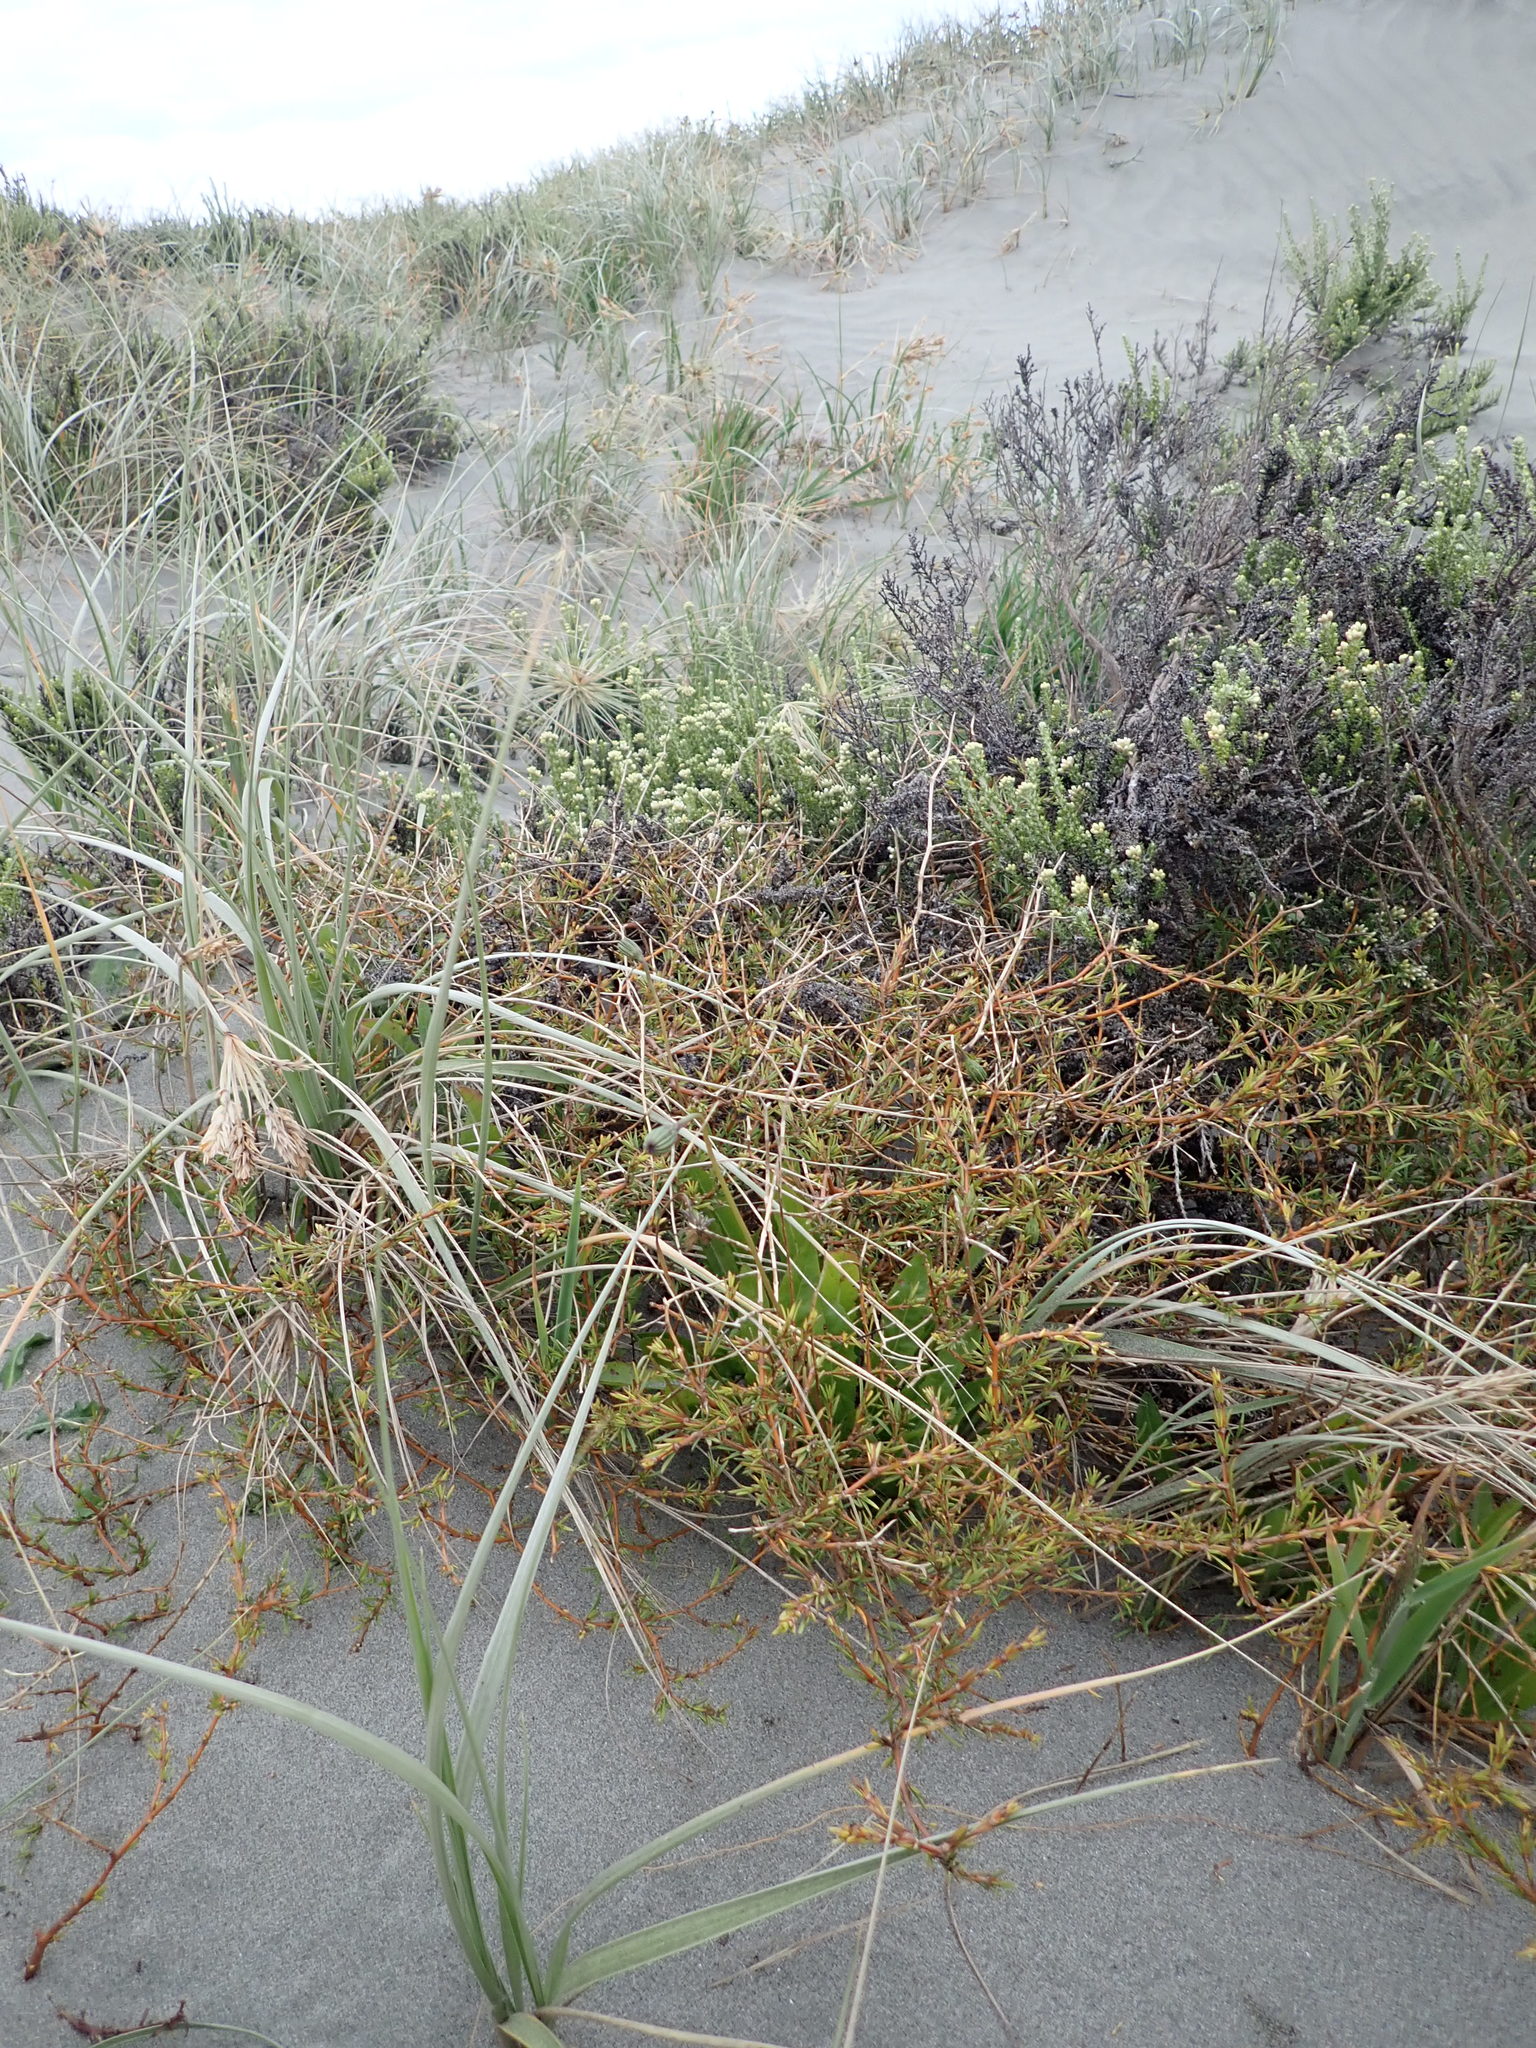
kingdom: Plantae
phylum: Tracheophyta
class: Magnoliopsida
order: Gentianales
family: Rubiaceae
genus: Coprosma
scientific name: Coprosma acerosa
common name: Sand coprosma
